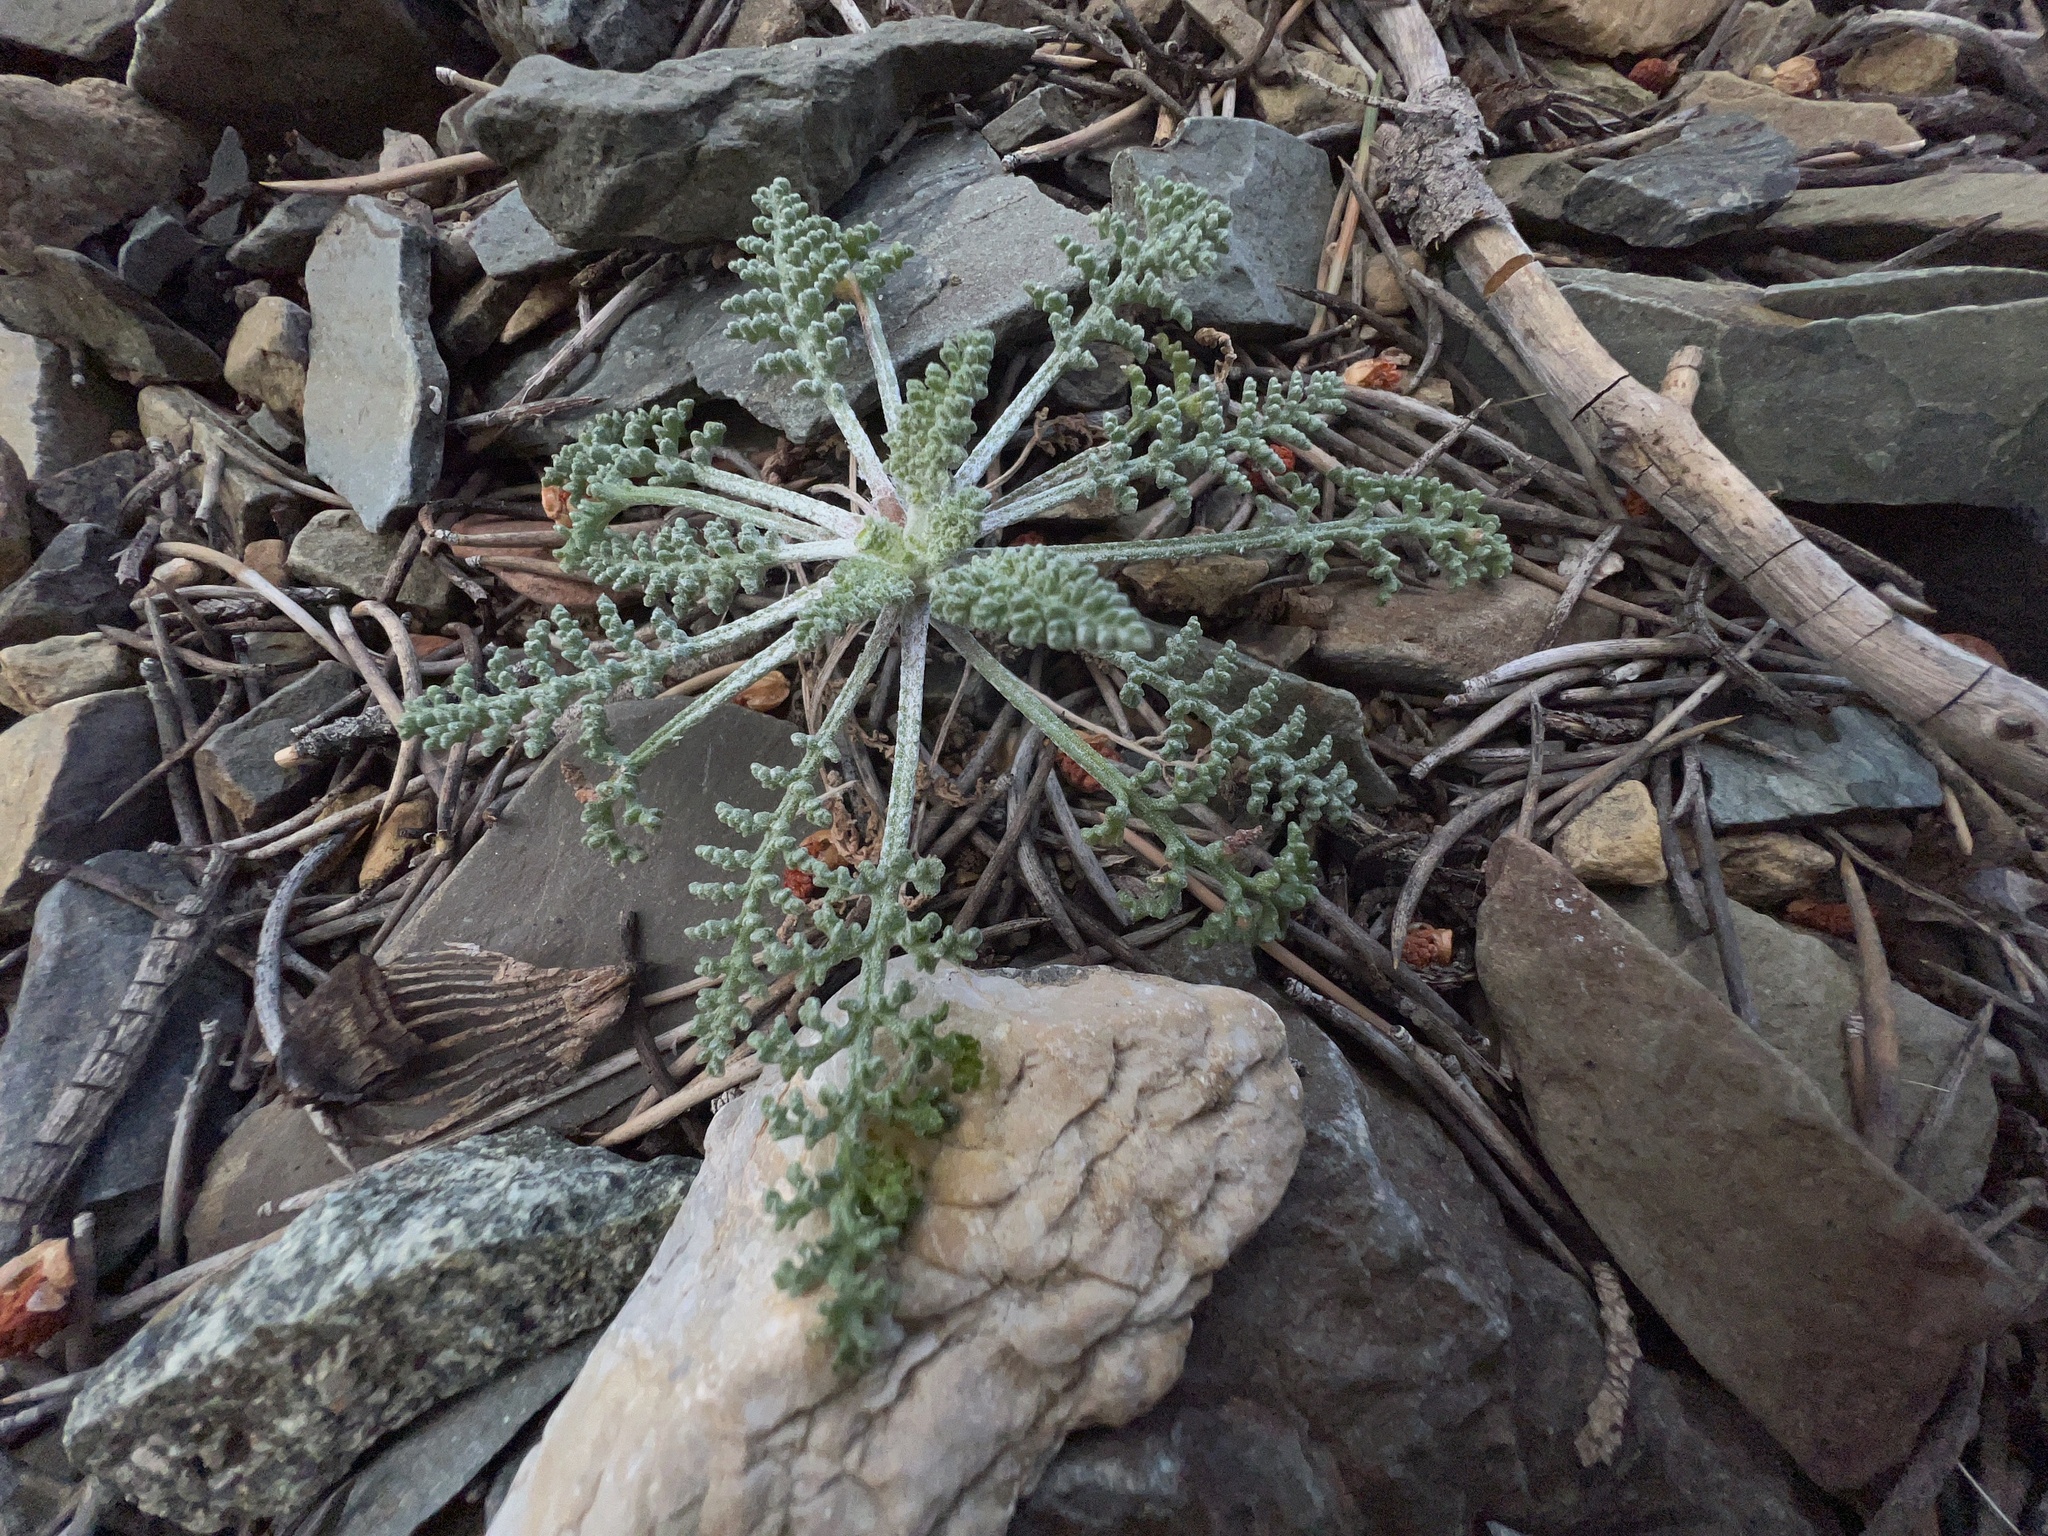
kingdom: Plantae
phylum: Tracheophyta
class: Magnoliopsida
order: Asterales
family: Asteraceae
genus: Chaenactis
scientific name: Chaenactis douglasii
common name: Hoary pincushion
